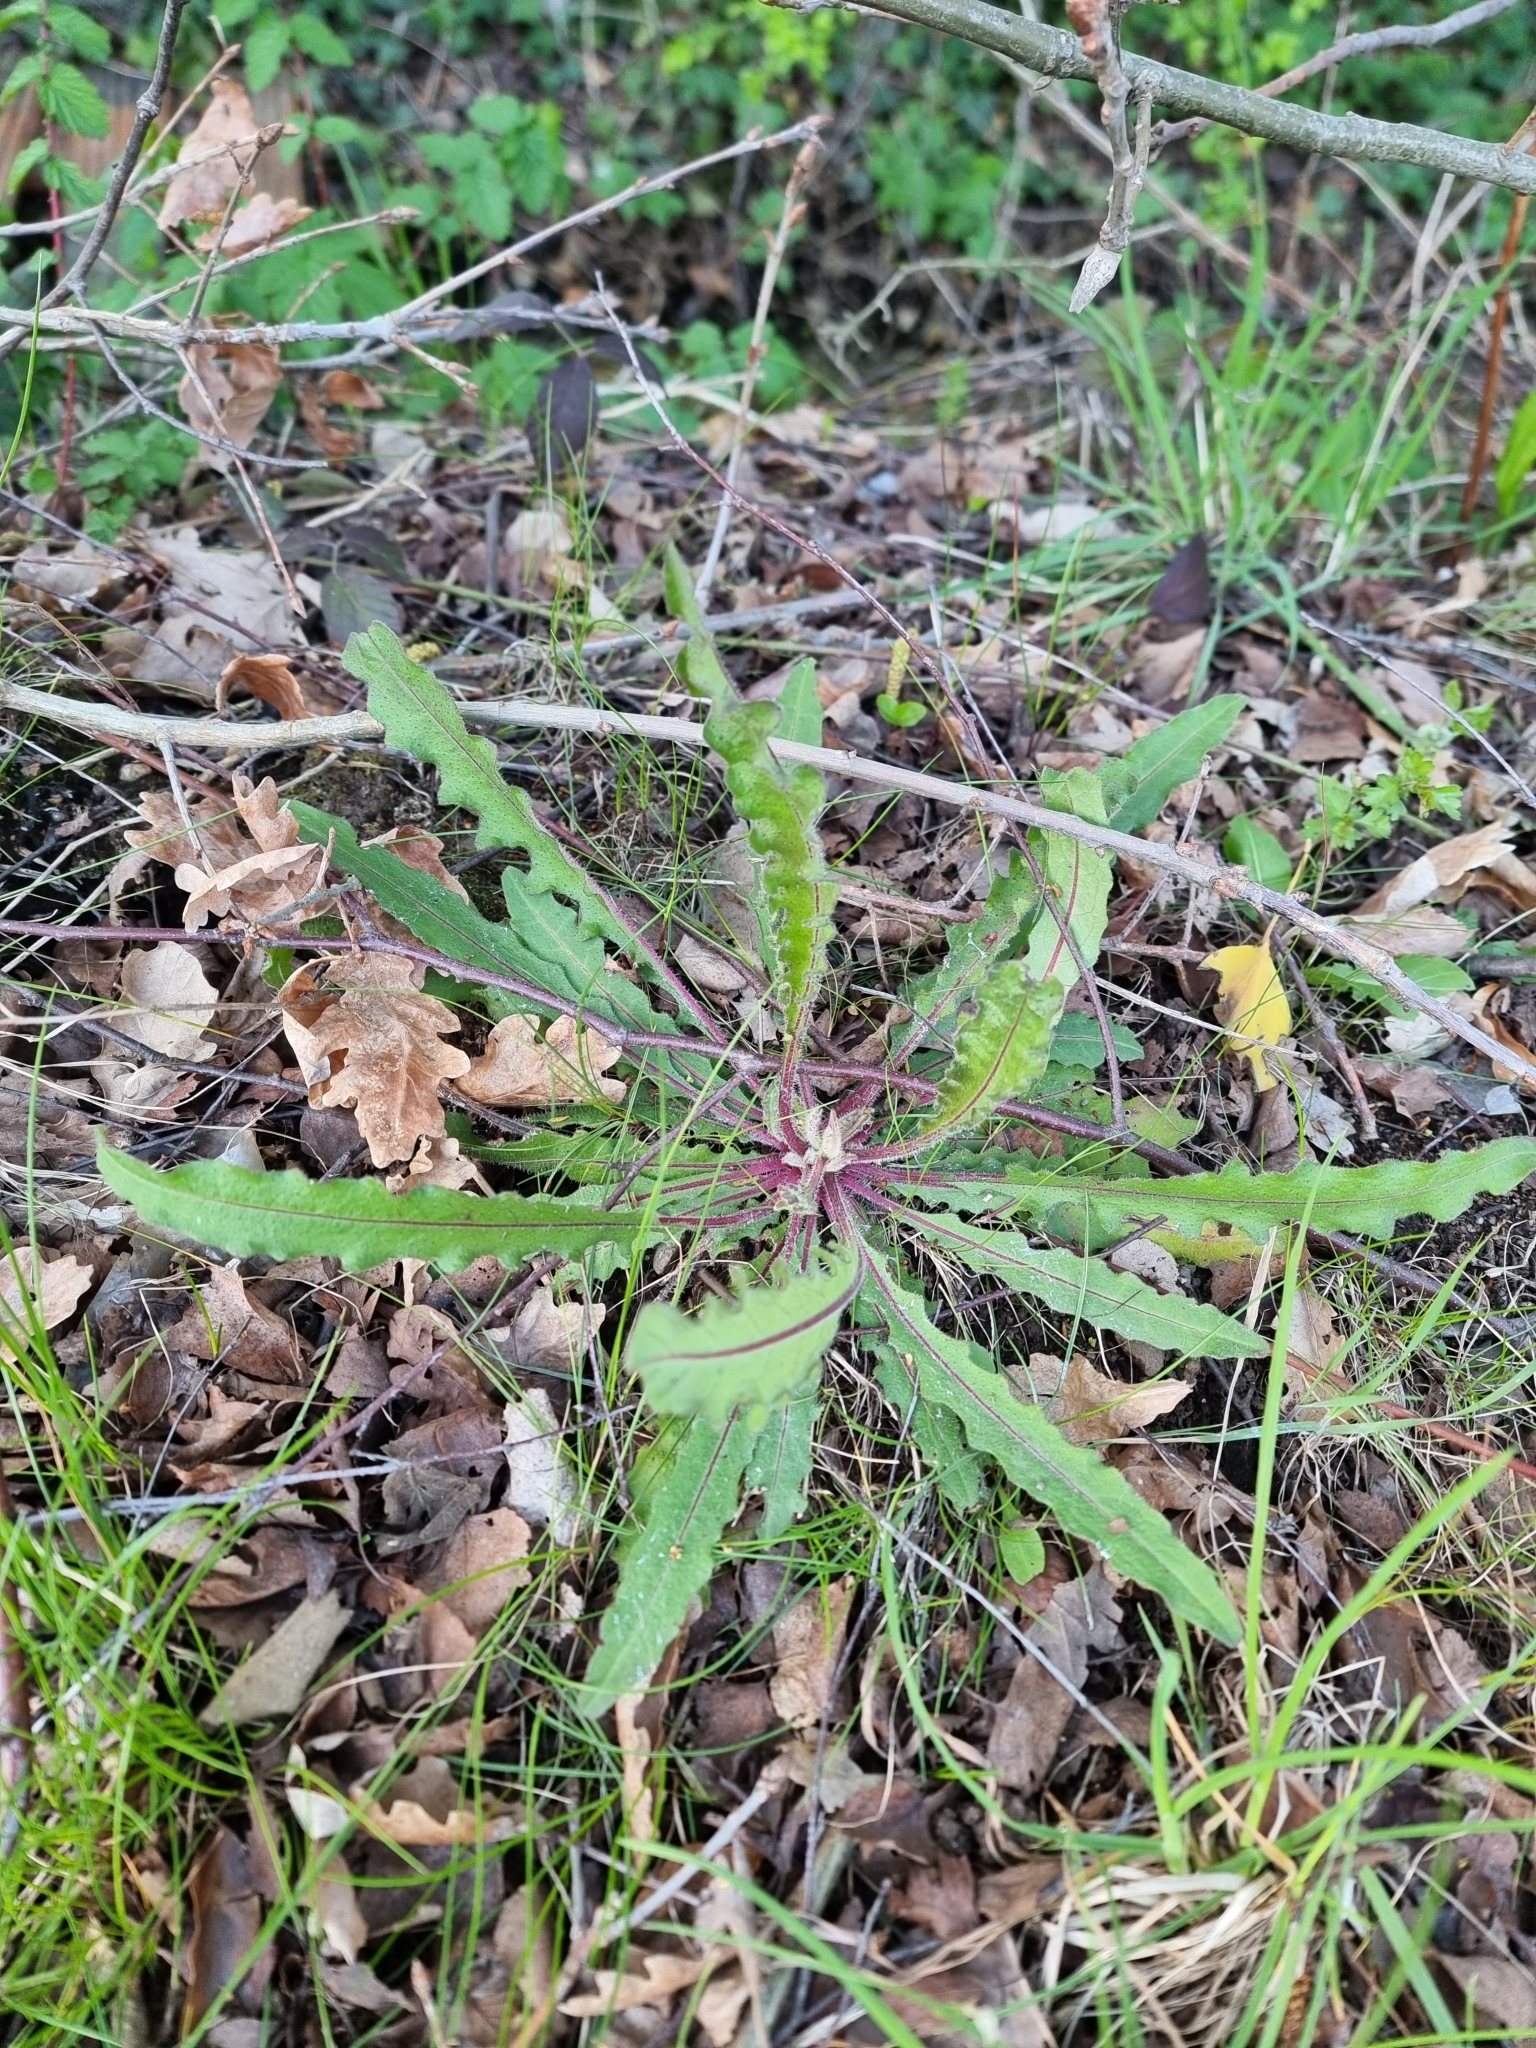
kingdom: Plantae
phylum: Tracheophyta
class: Magnoliopsida
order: Asterales
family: Asteraceae
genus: Picris
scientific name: Picris hieracioides
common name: Hawkweed oxtongue
